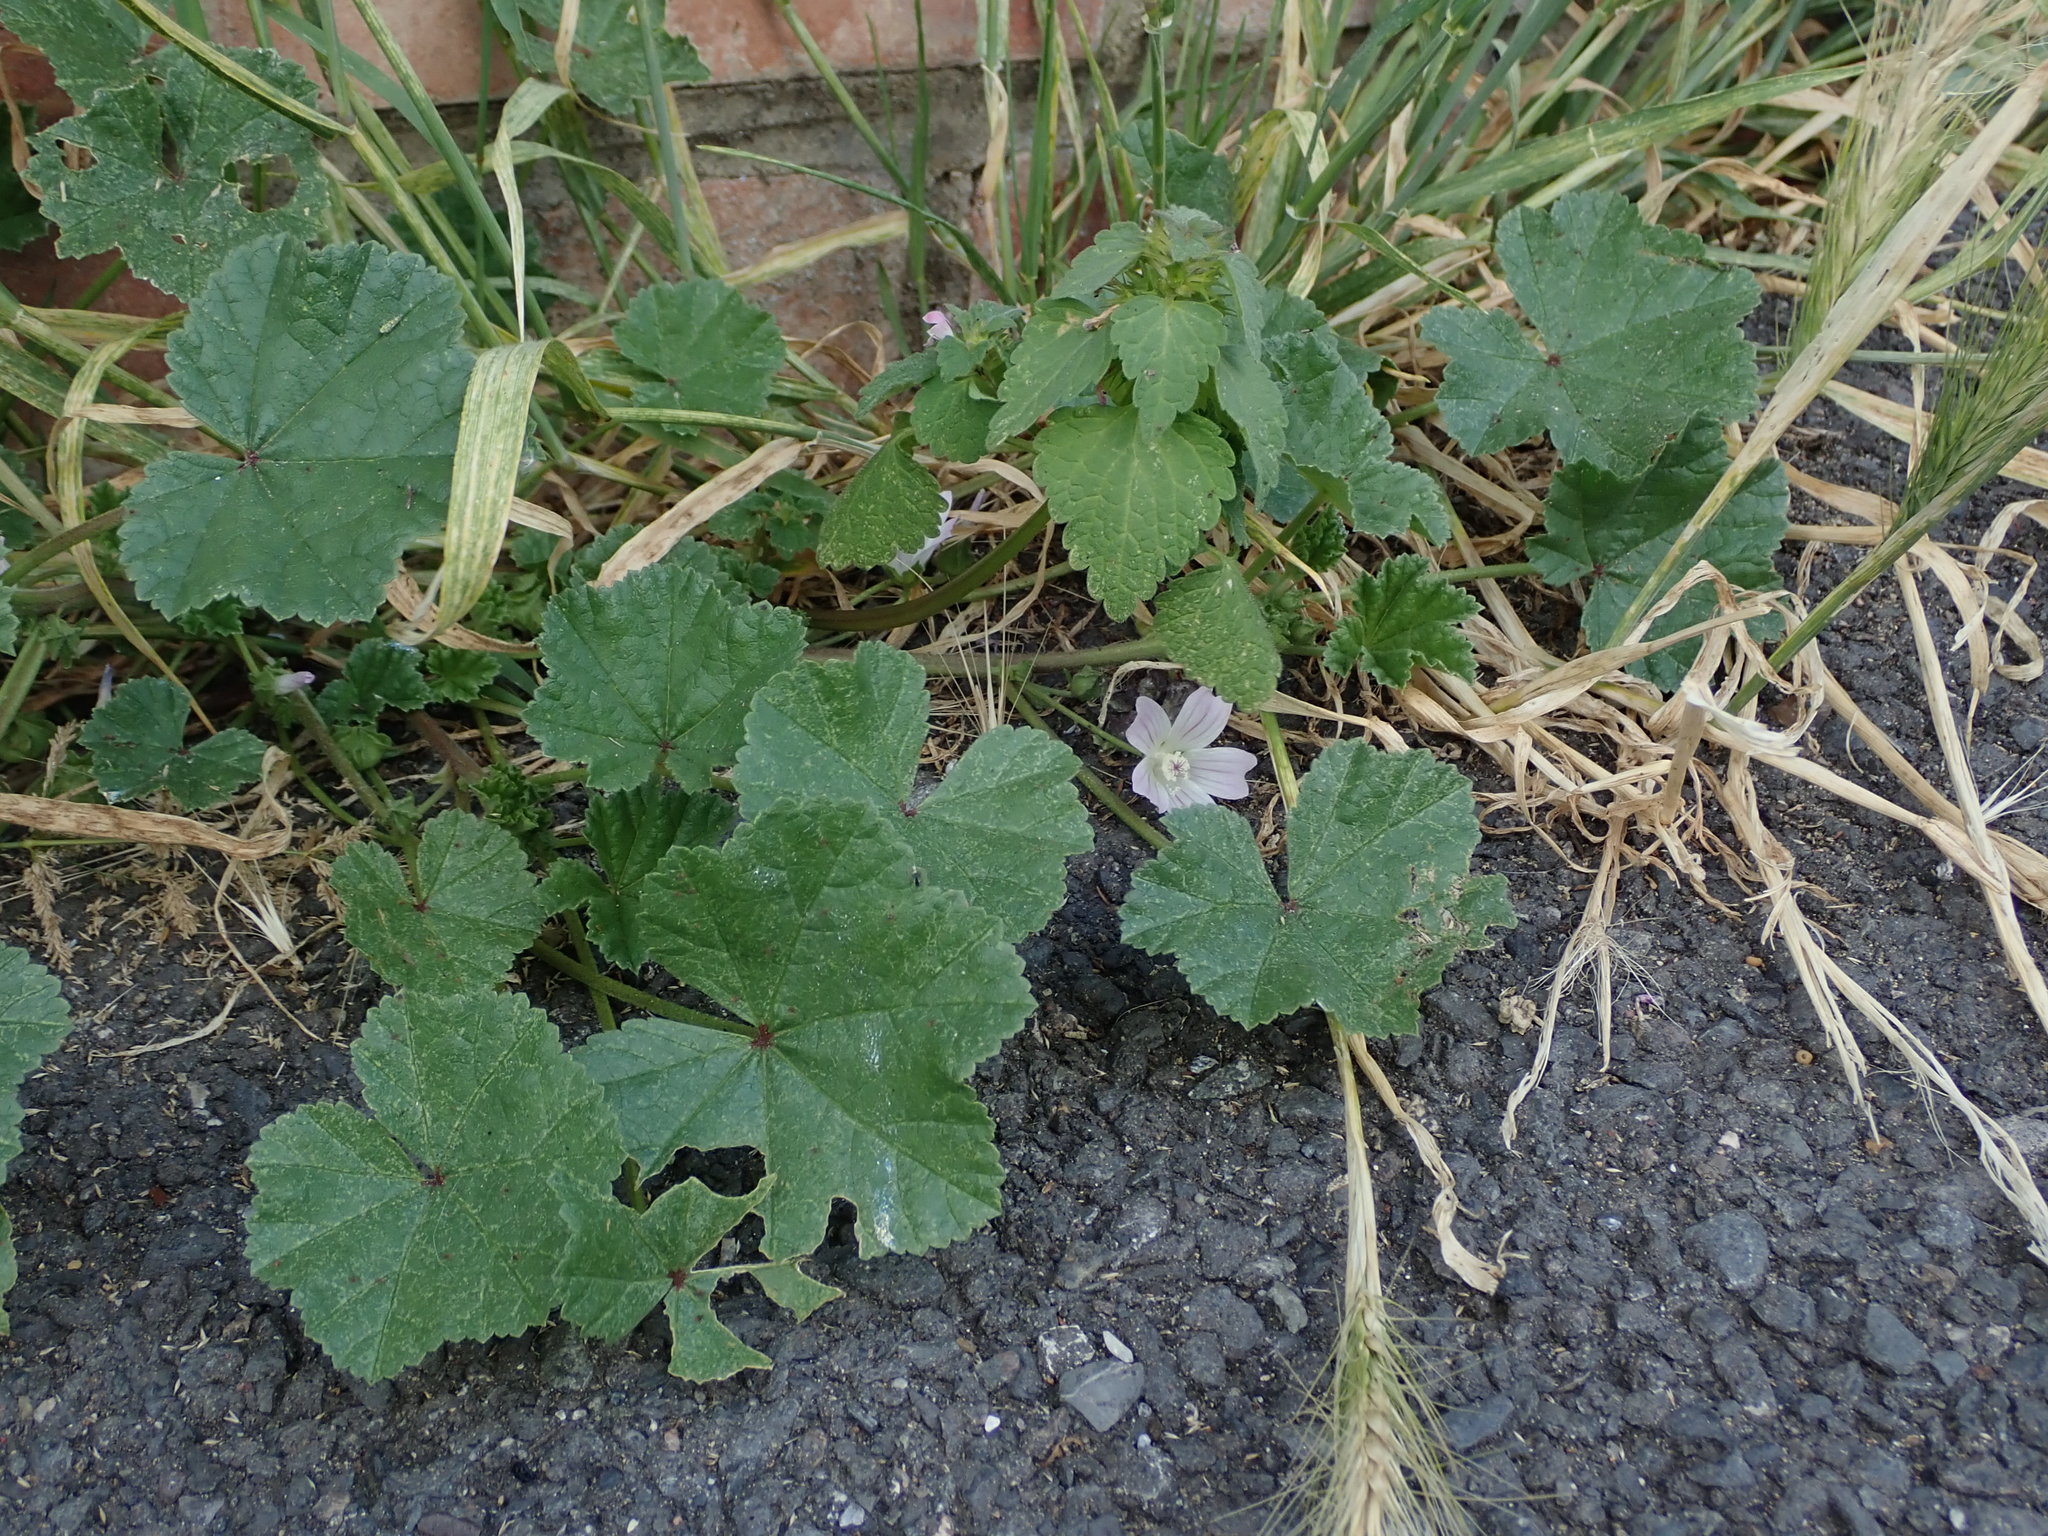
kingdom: Plantae
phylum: Tracheophyta
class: Magnoliopsida
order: Malvales
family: Malvaceae
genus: Malva
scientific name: Malva neglecta
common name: Common mallow
